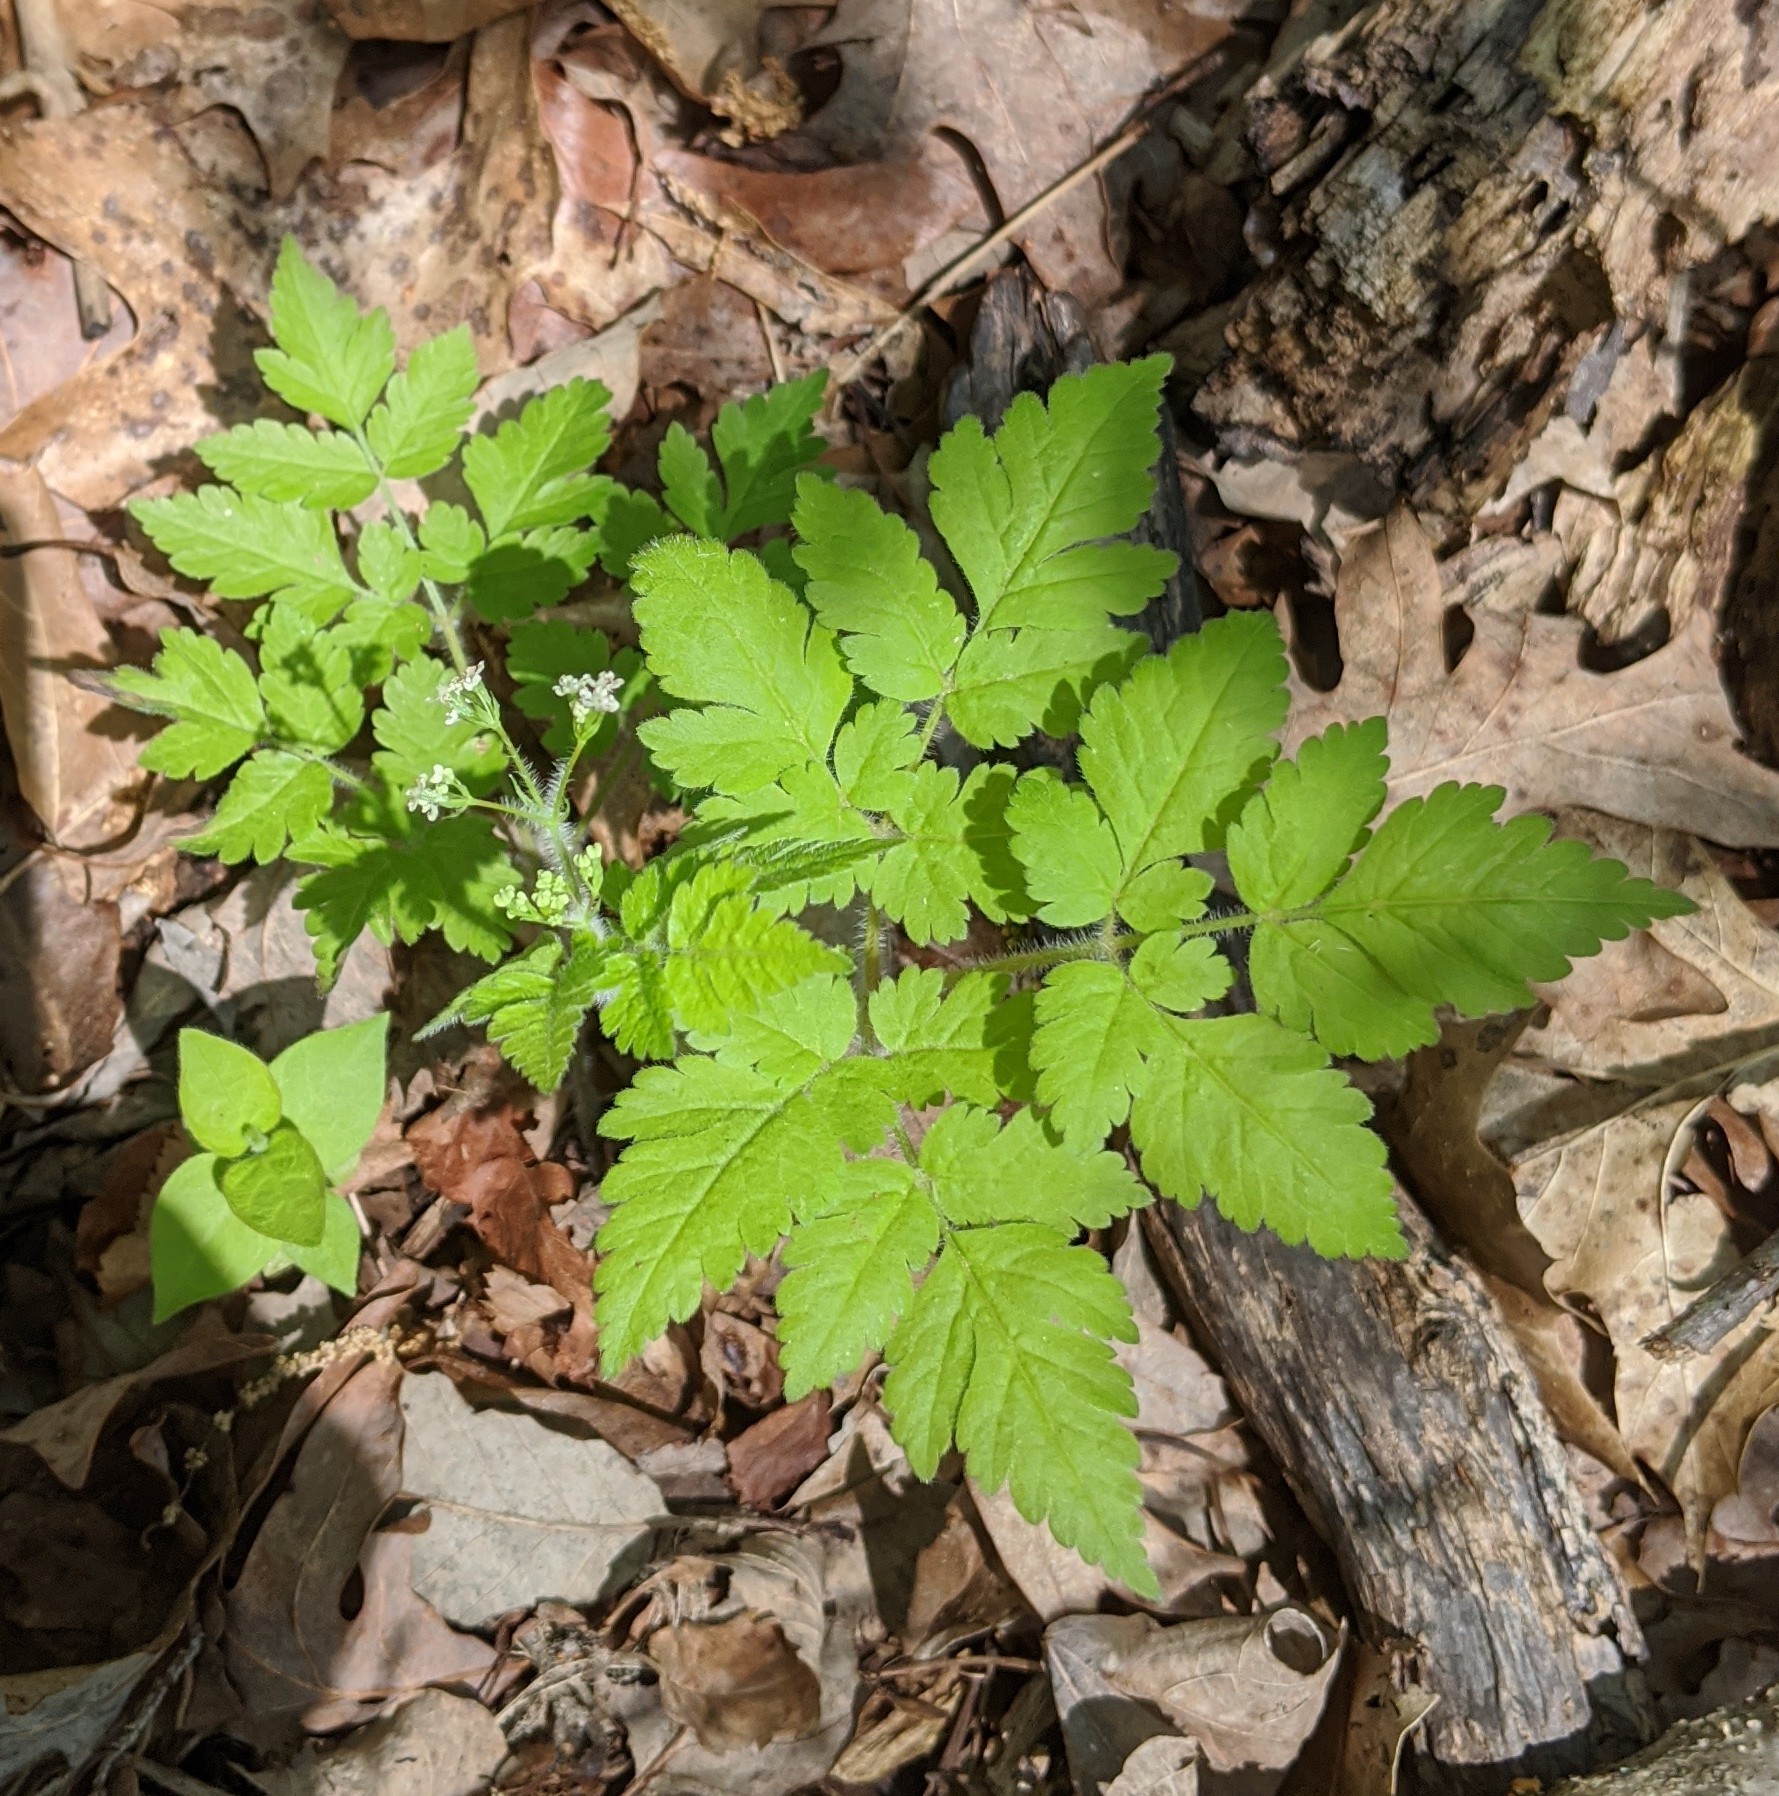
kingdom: Plantae
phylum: Tracheophyta
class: Magnoliopsida
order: Apiales
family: Apiaceae
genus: Osmorhiza
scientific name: Osmorhiza claytonii
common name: Hairy sweet cicely
